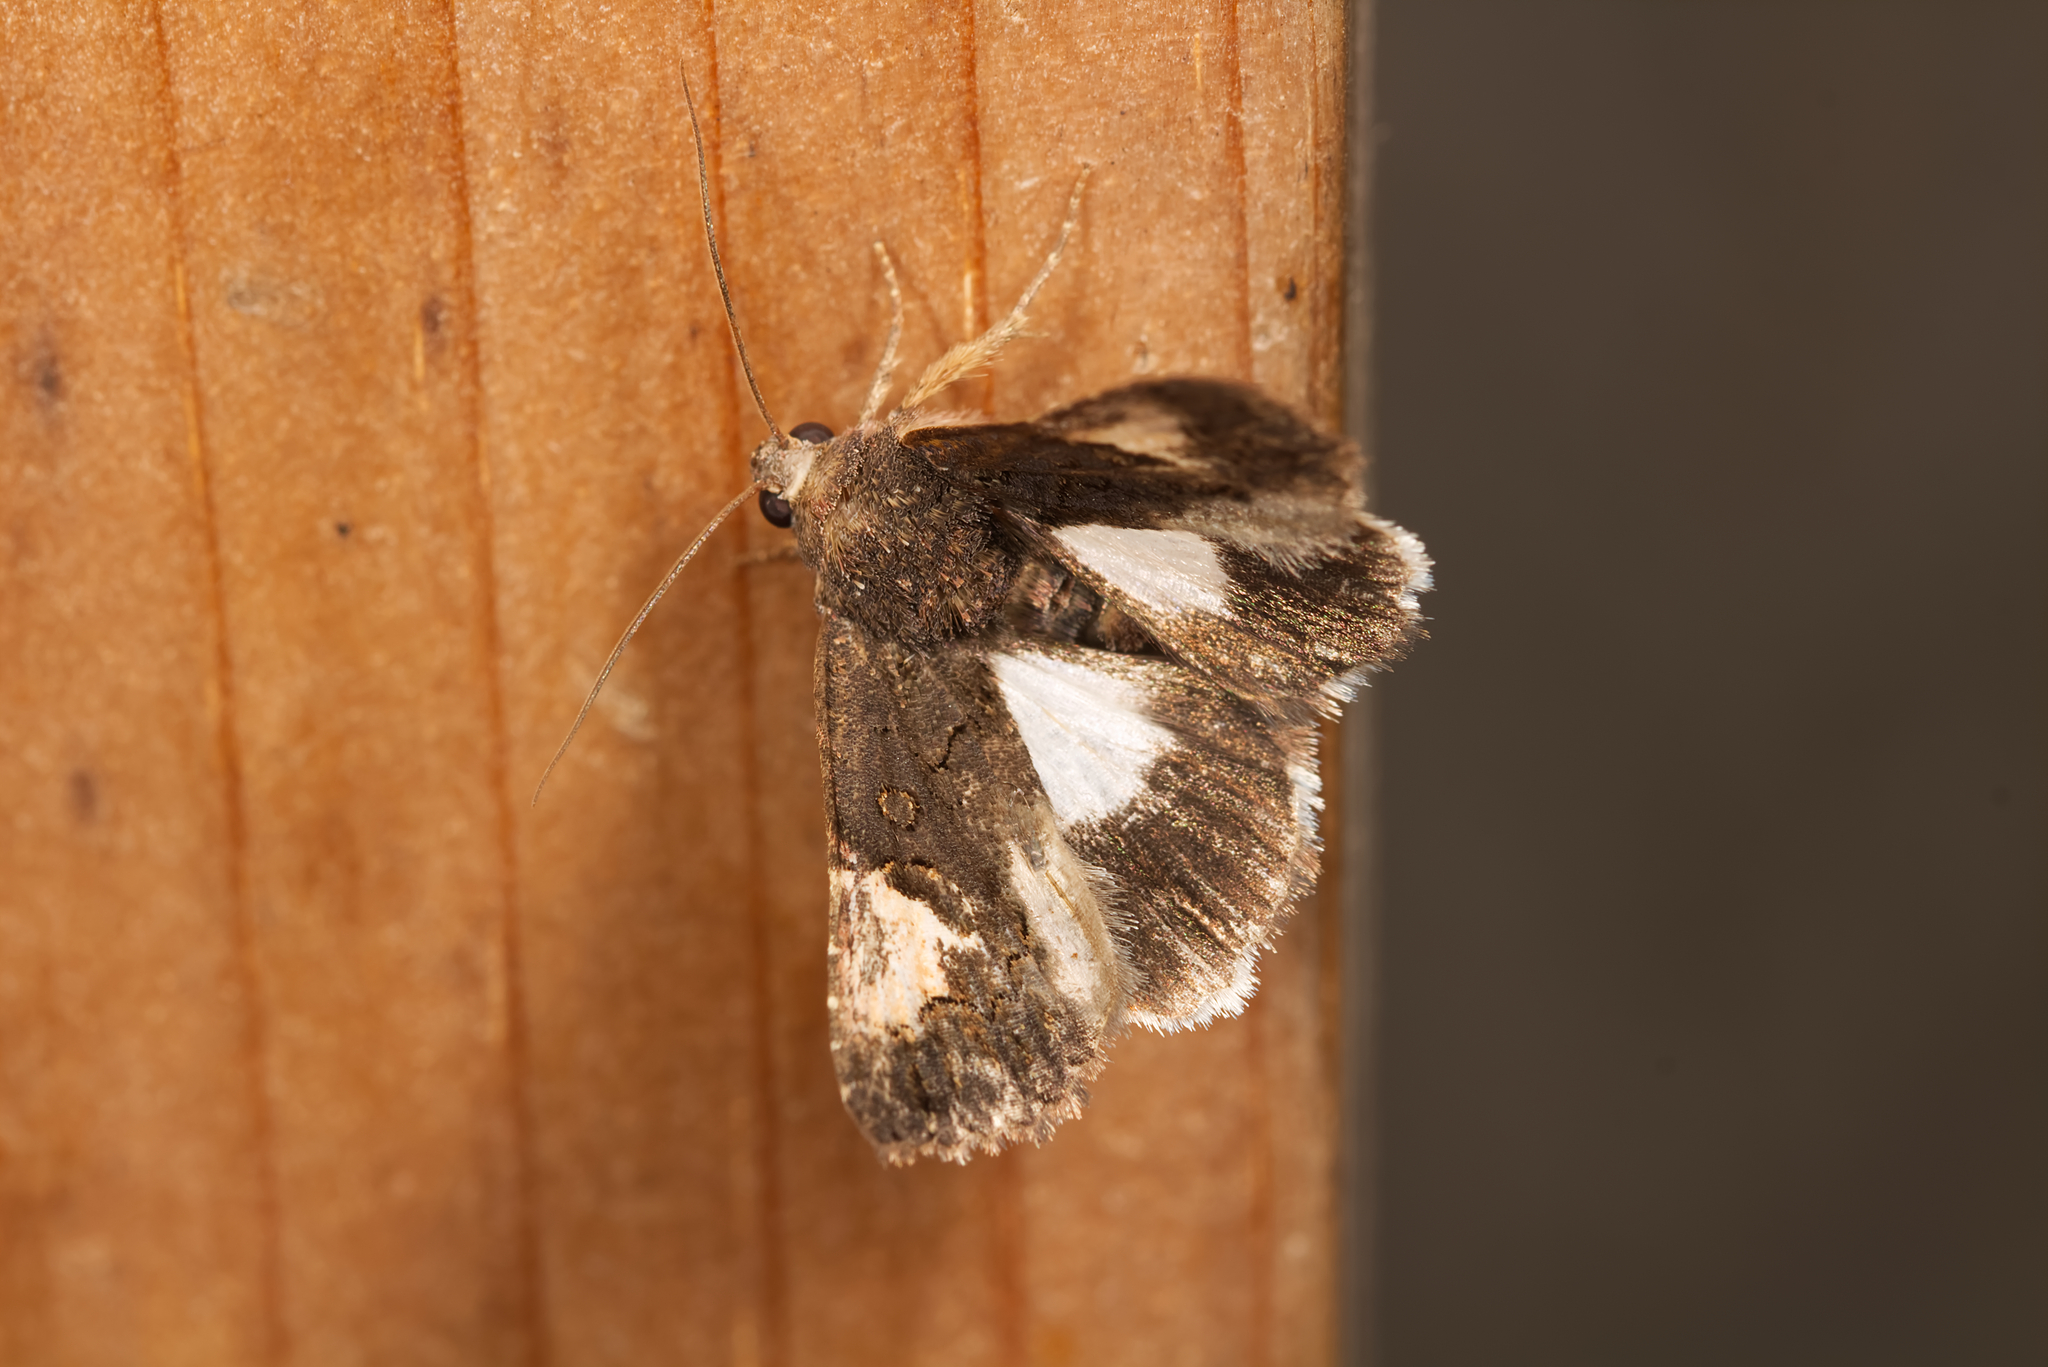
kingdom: Animalia
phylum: Arthropoda
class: Insecta
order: Lepidoptera
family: Noctuidae
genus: Aedia
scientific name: Aedia funesta
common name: The druid
